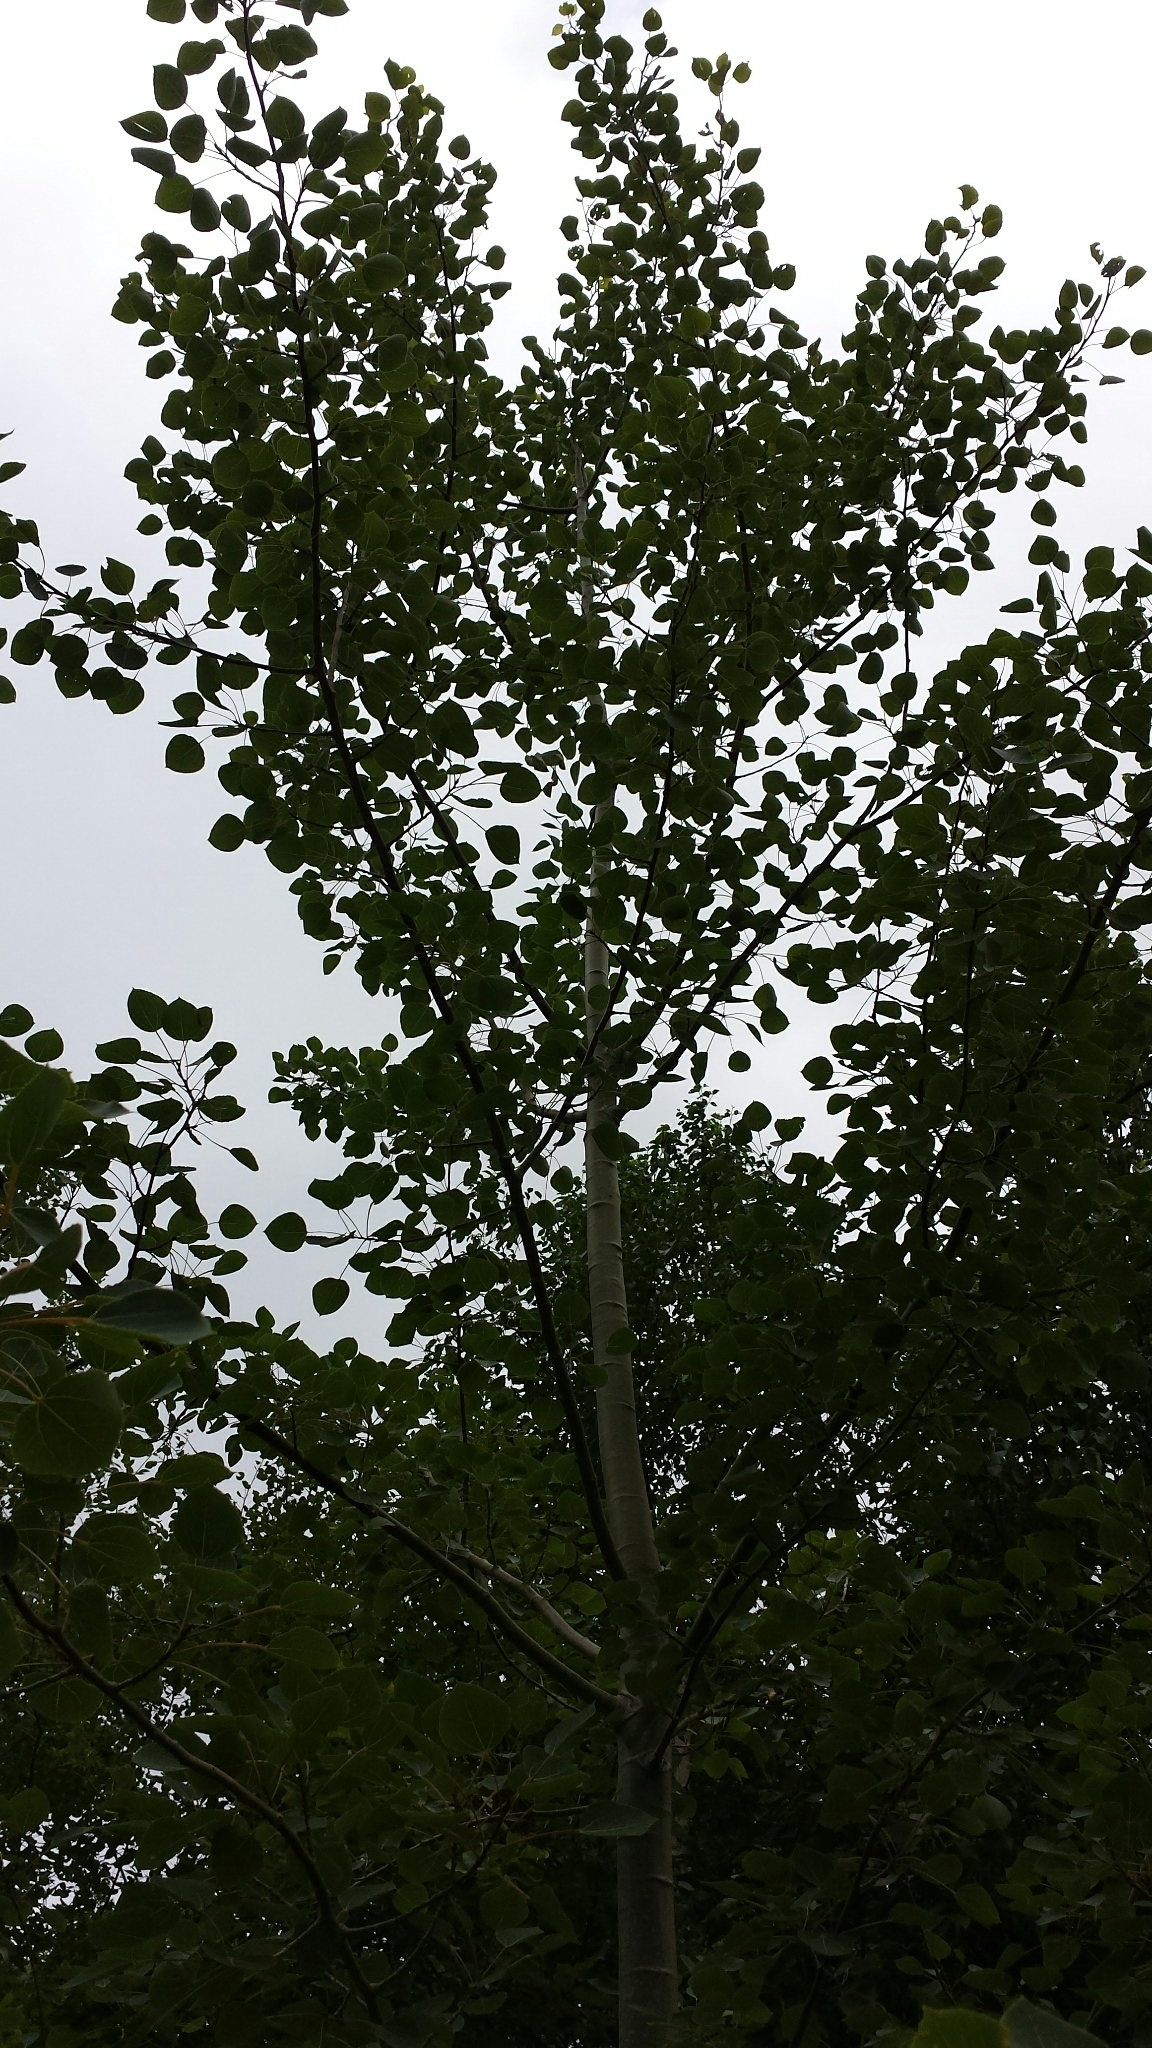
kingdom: Plantae
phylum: Tracheophyta
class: Magnoliopsida
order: Malpighiales
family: Salicaceae
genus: Populus
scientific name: Populus tremuloides
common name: Quaking aspen
